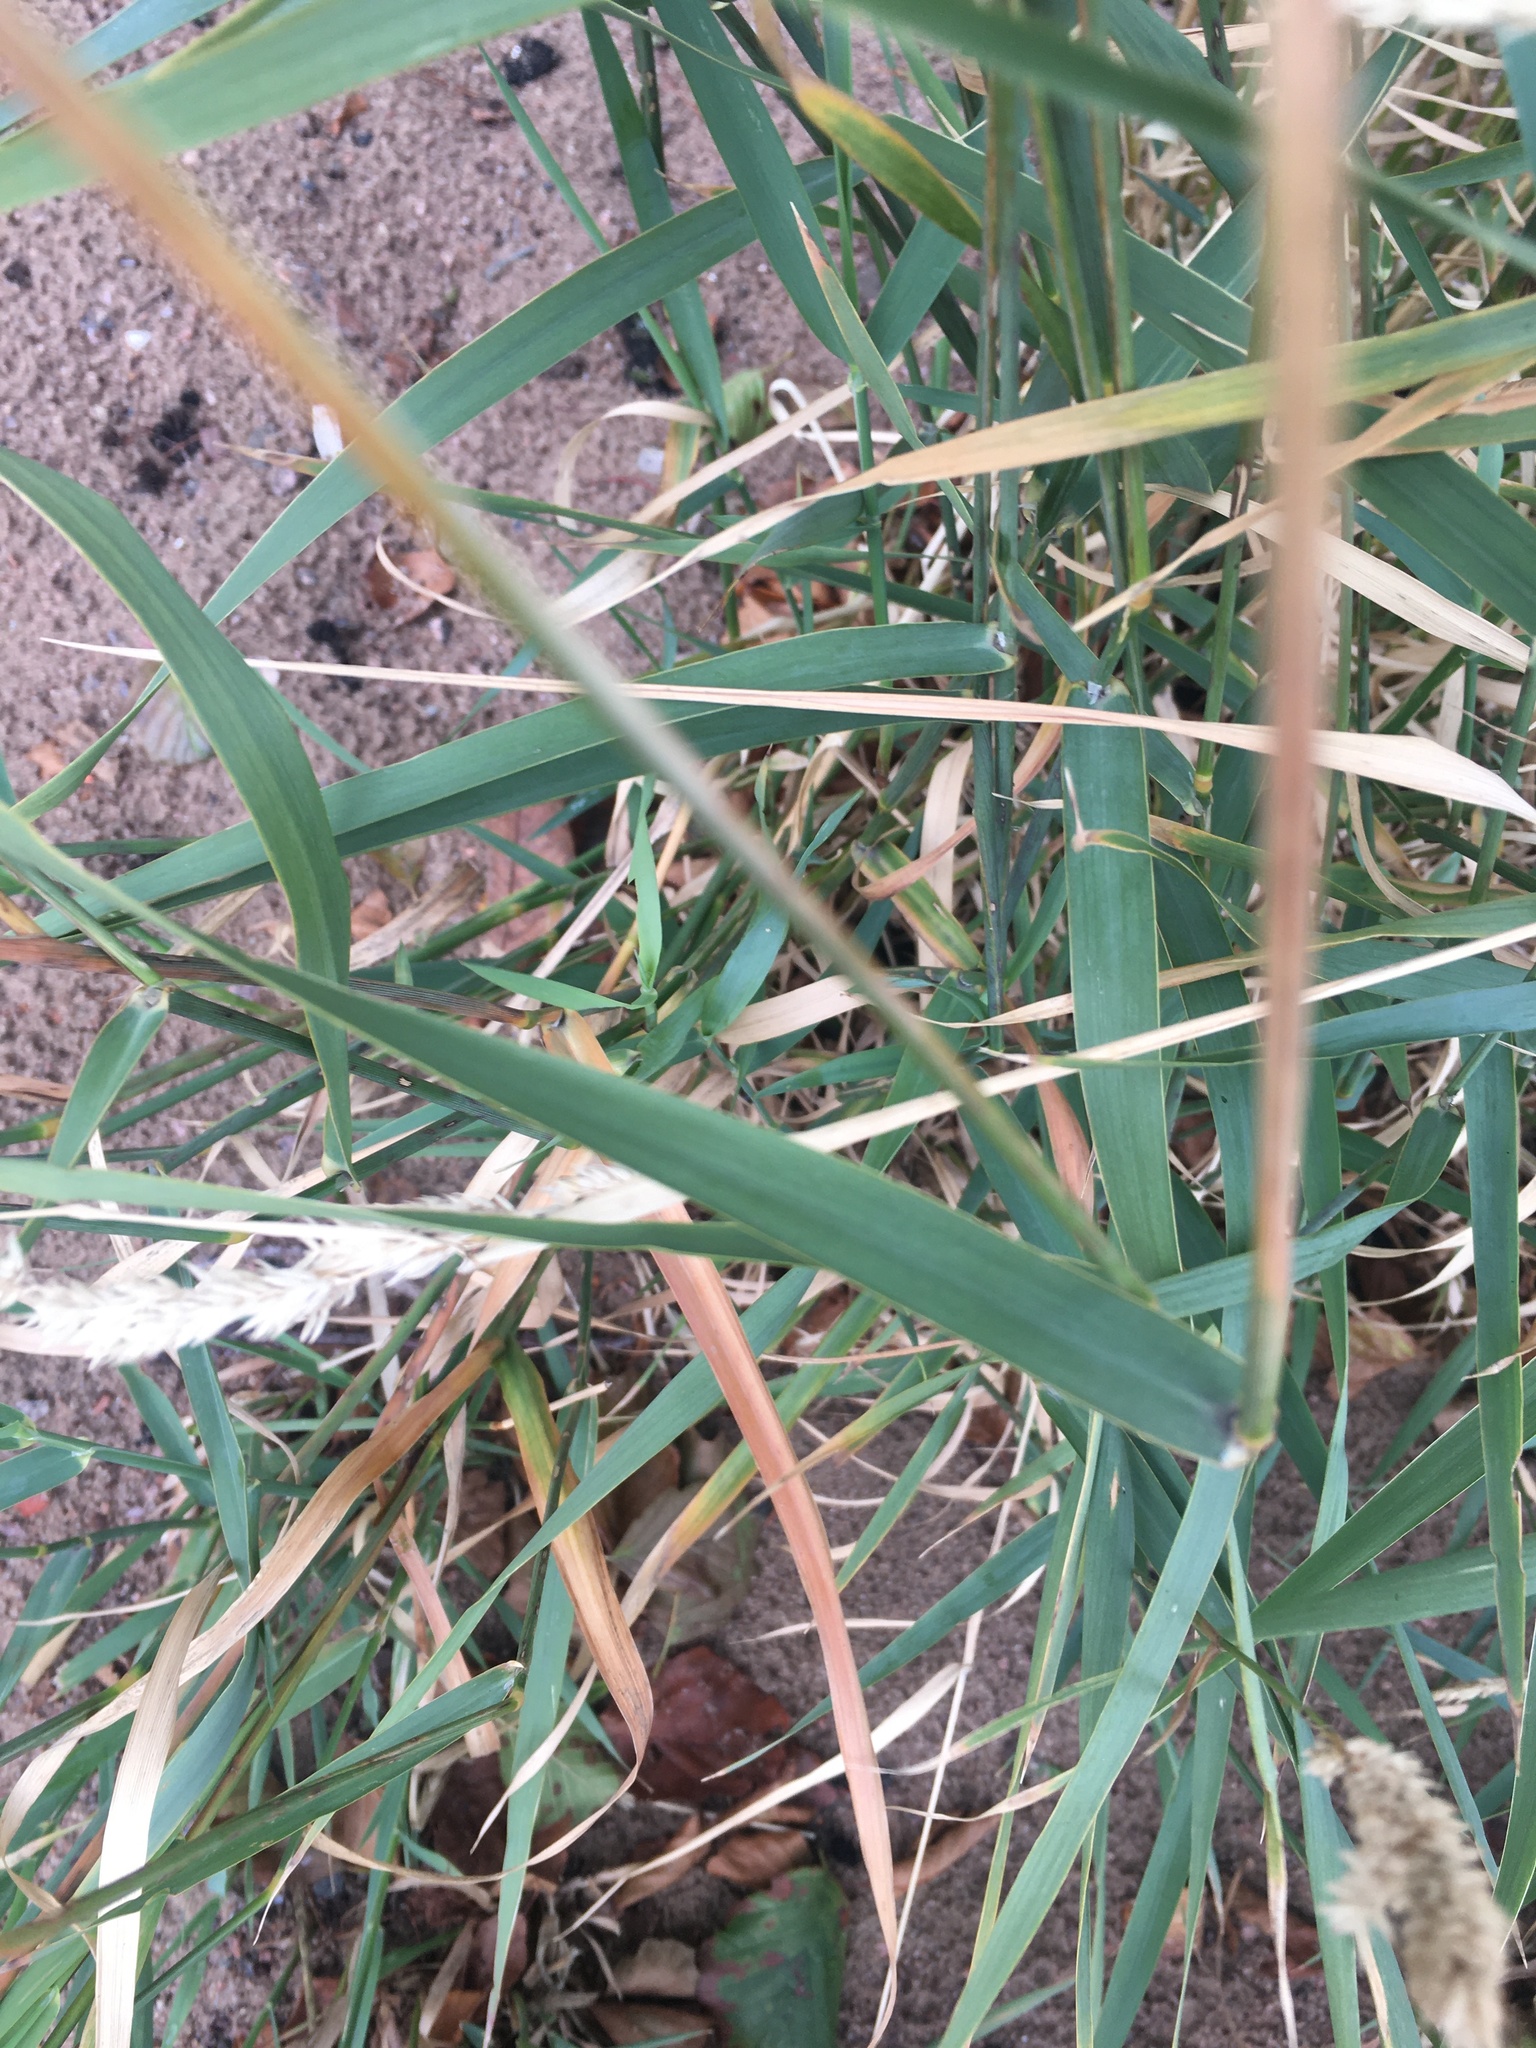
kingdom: Plantae
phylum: Tracheophyta
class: Liliopsida
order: Poales
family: Poaceae
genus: Phalaris
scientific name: Phalaris arundinacea
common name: Reed canary-grass
